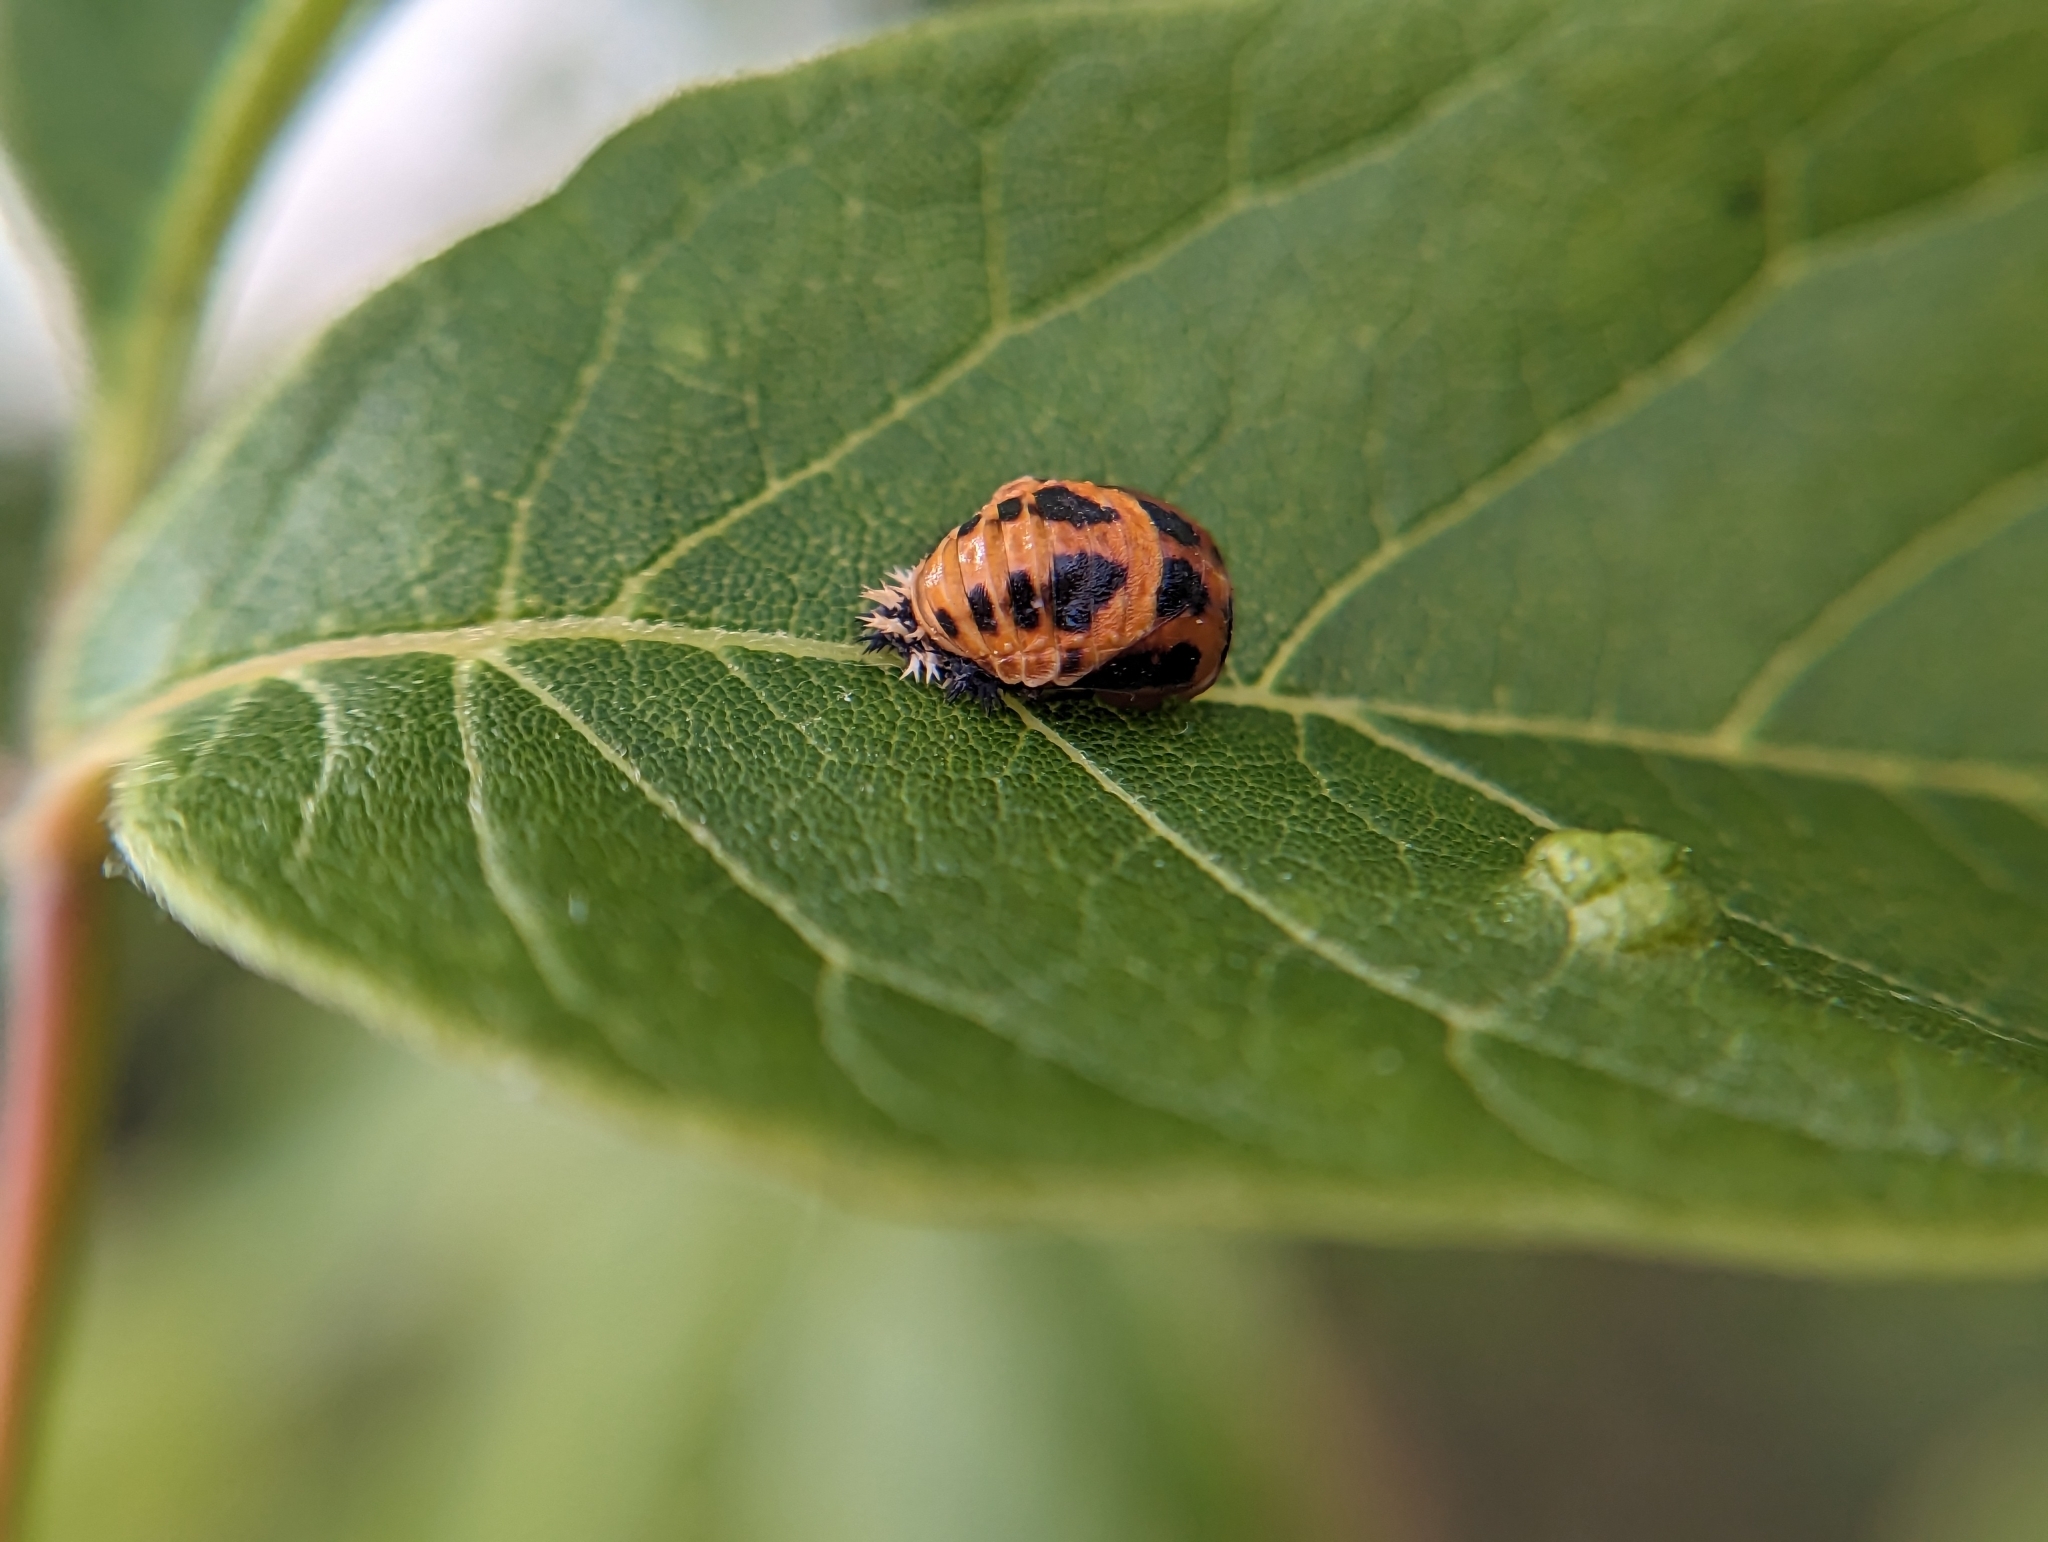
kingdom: Animalia
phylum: Arthropoda
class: Insecta
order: Coleoptera
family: Coccinellidae
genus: Harmonia
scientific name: Harmonia axyridis
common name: Harlequin ladybird
